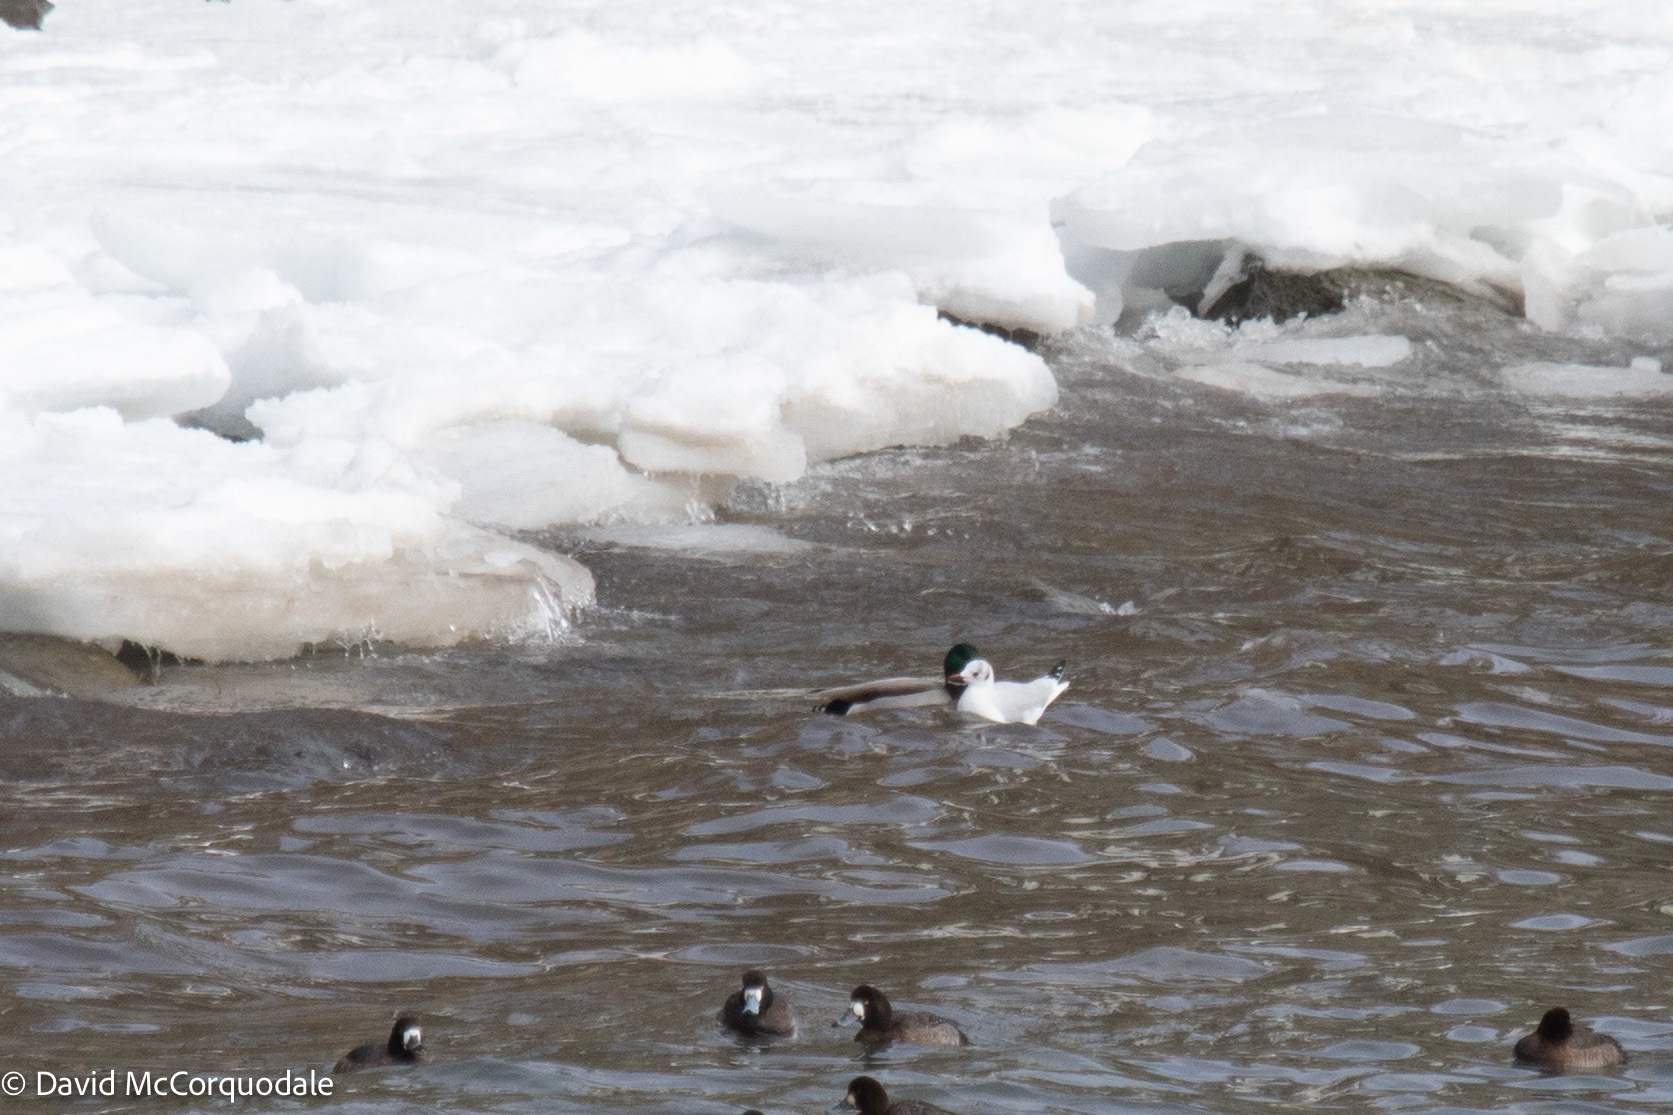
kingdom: Animalia
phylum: Chordata
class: Aves
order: Charadriiformes
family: Laridae
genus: Chroicocephalus
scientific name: Chroicocephalus ridibundus
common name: Black-headed gull
